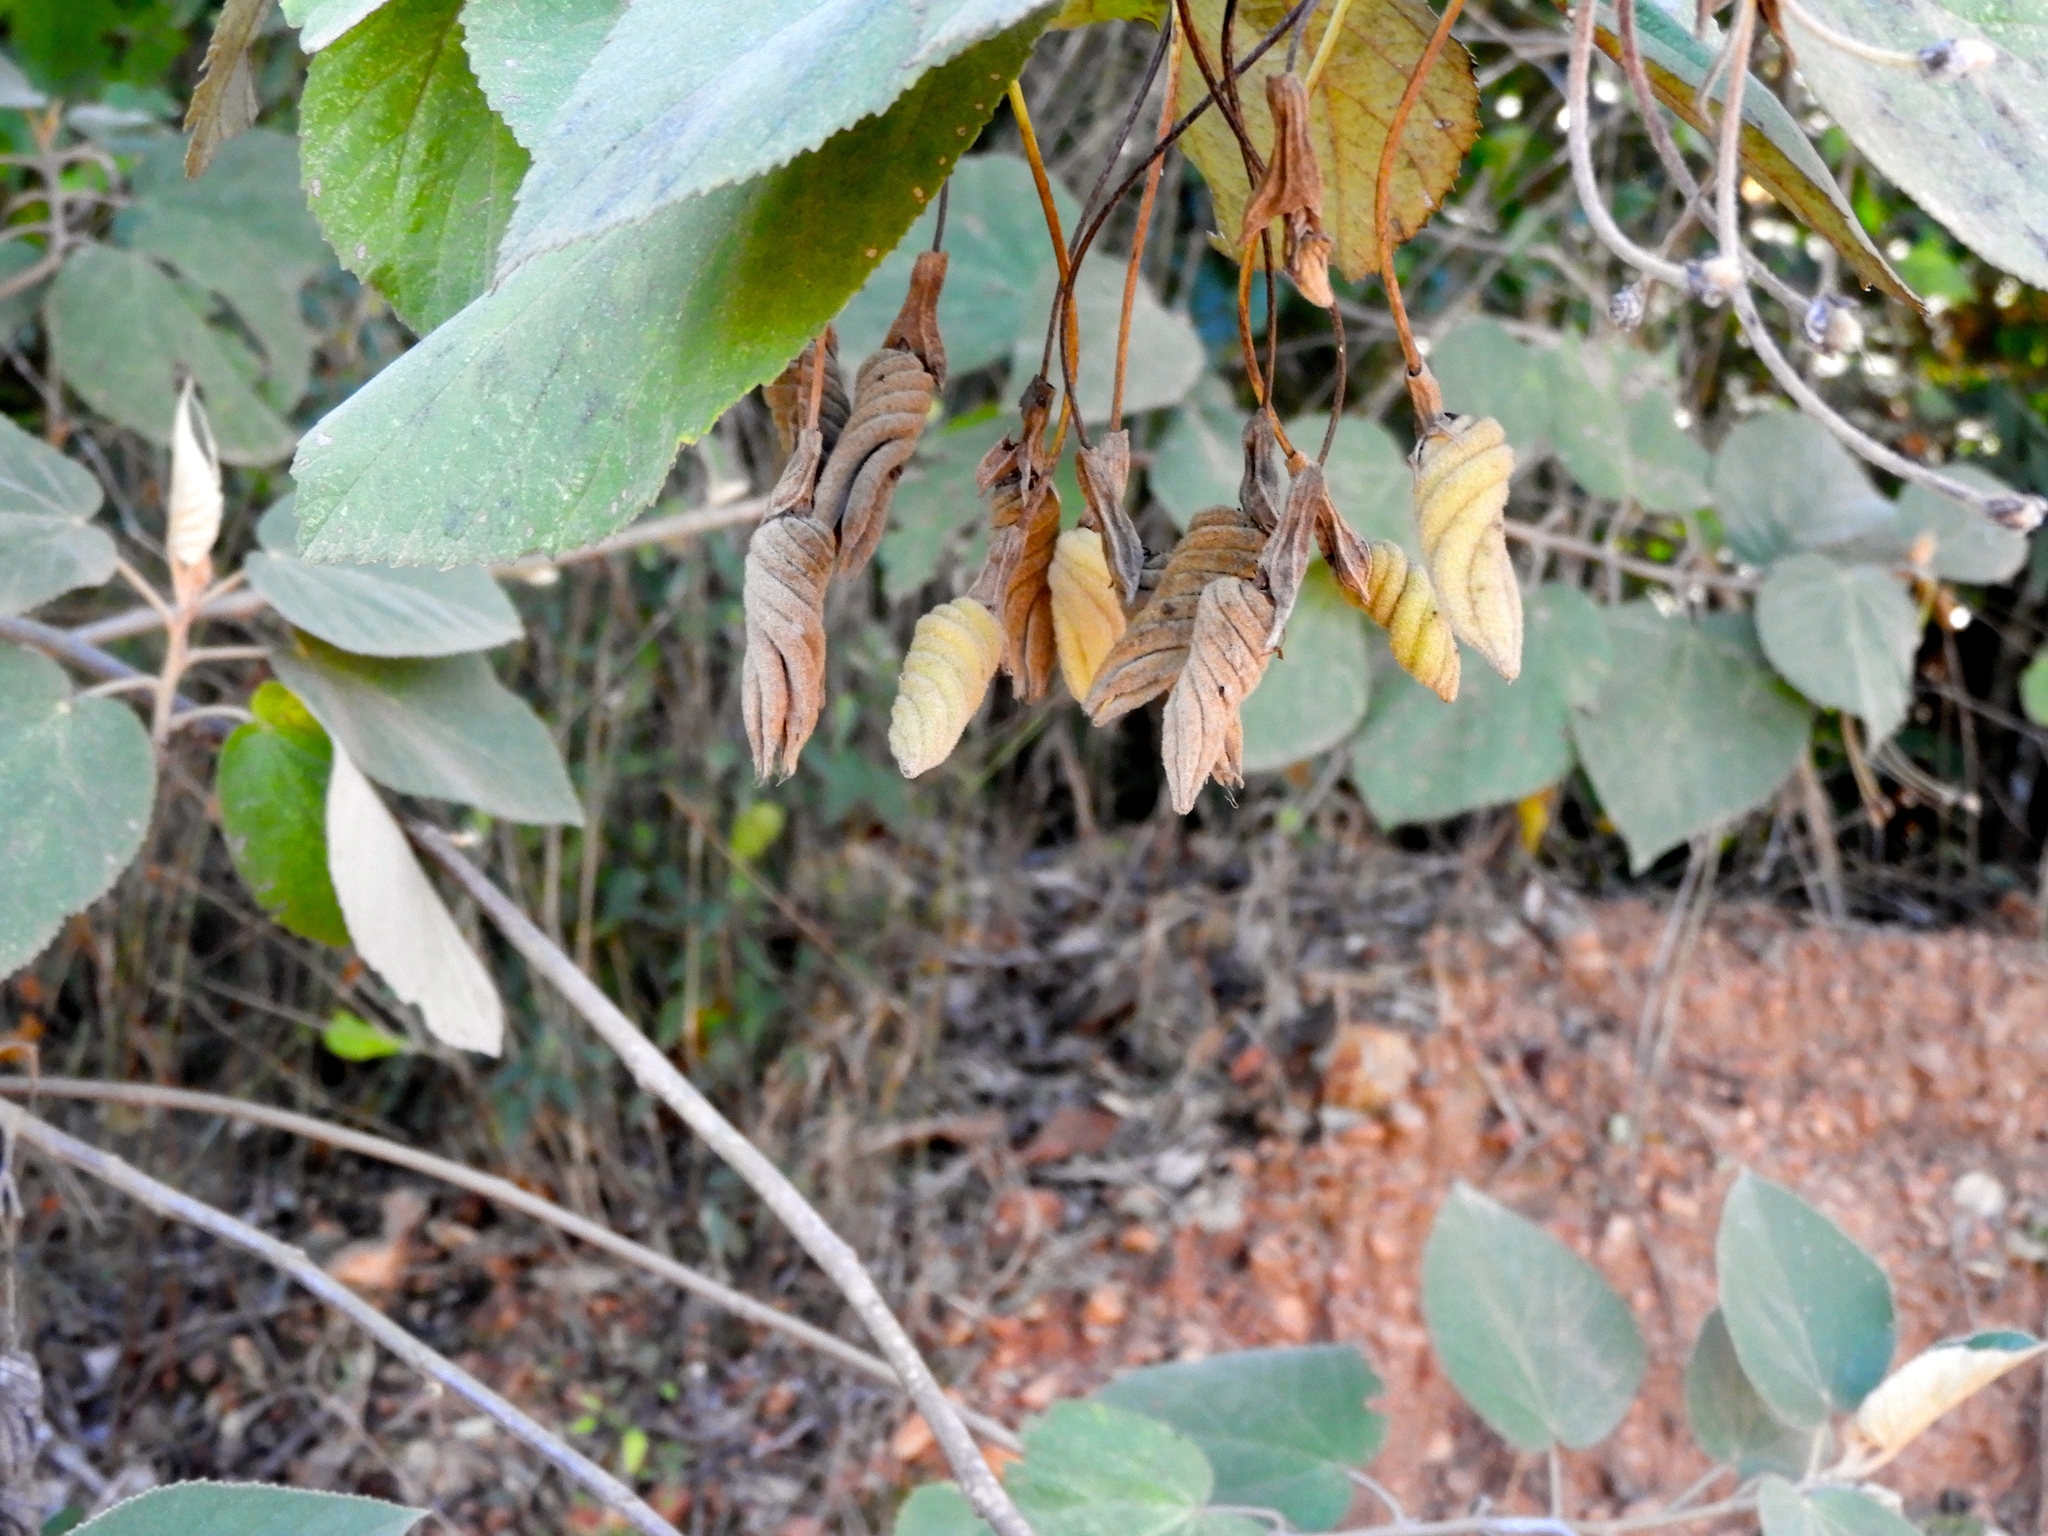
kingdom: Plantae
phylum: Tracheophyta
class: Magnoliopsida
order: Malvales
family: Malvaceae
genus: Helicteres
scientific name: Helicteres baruensis
